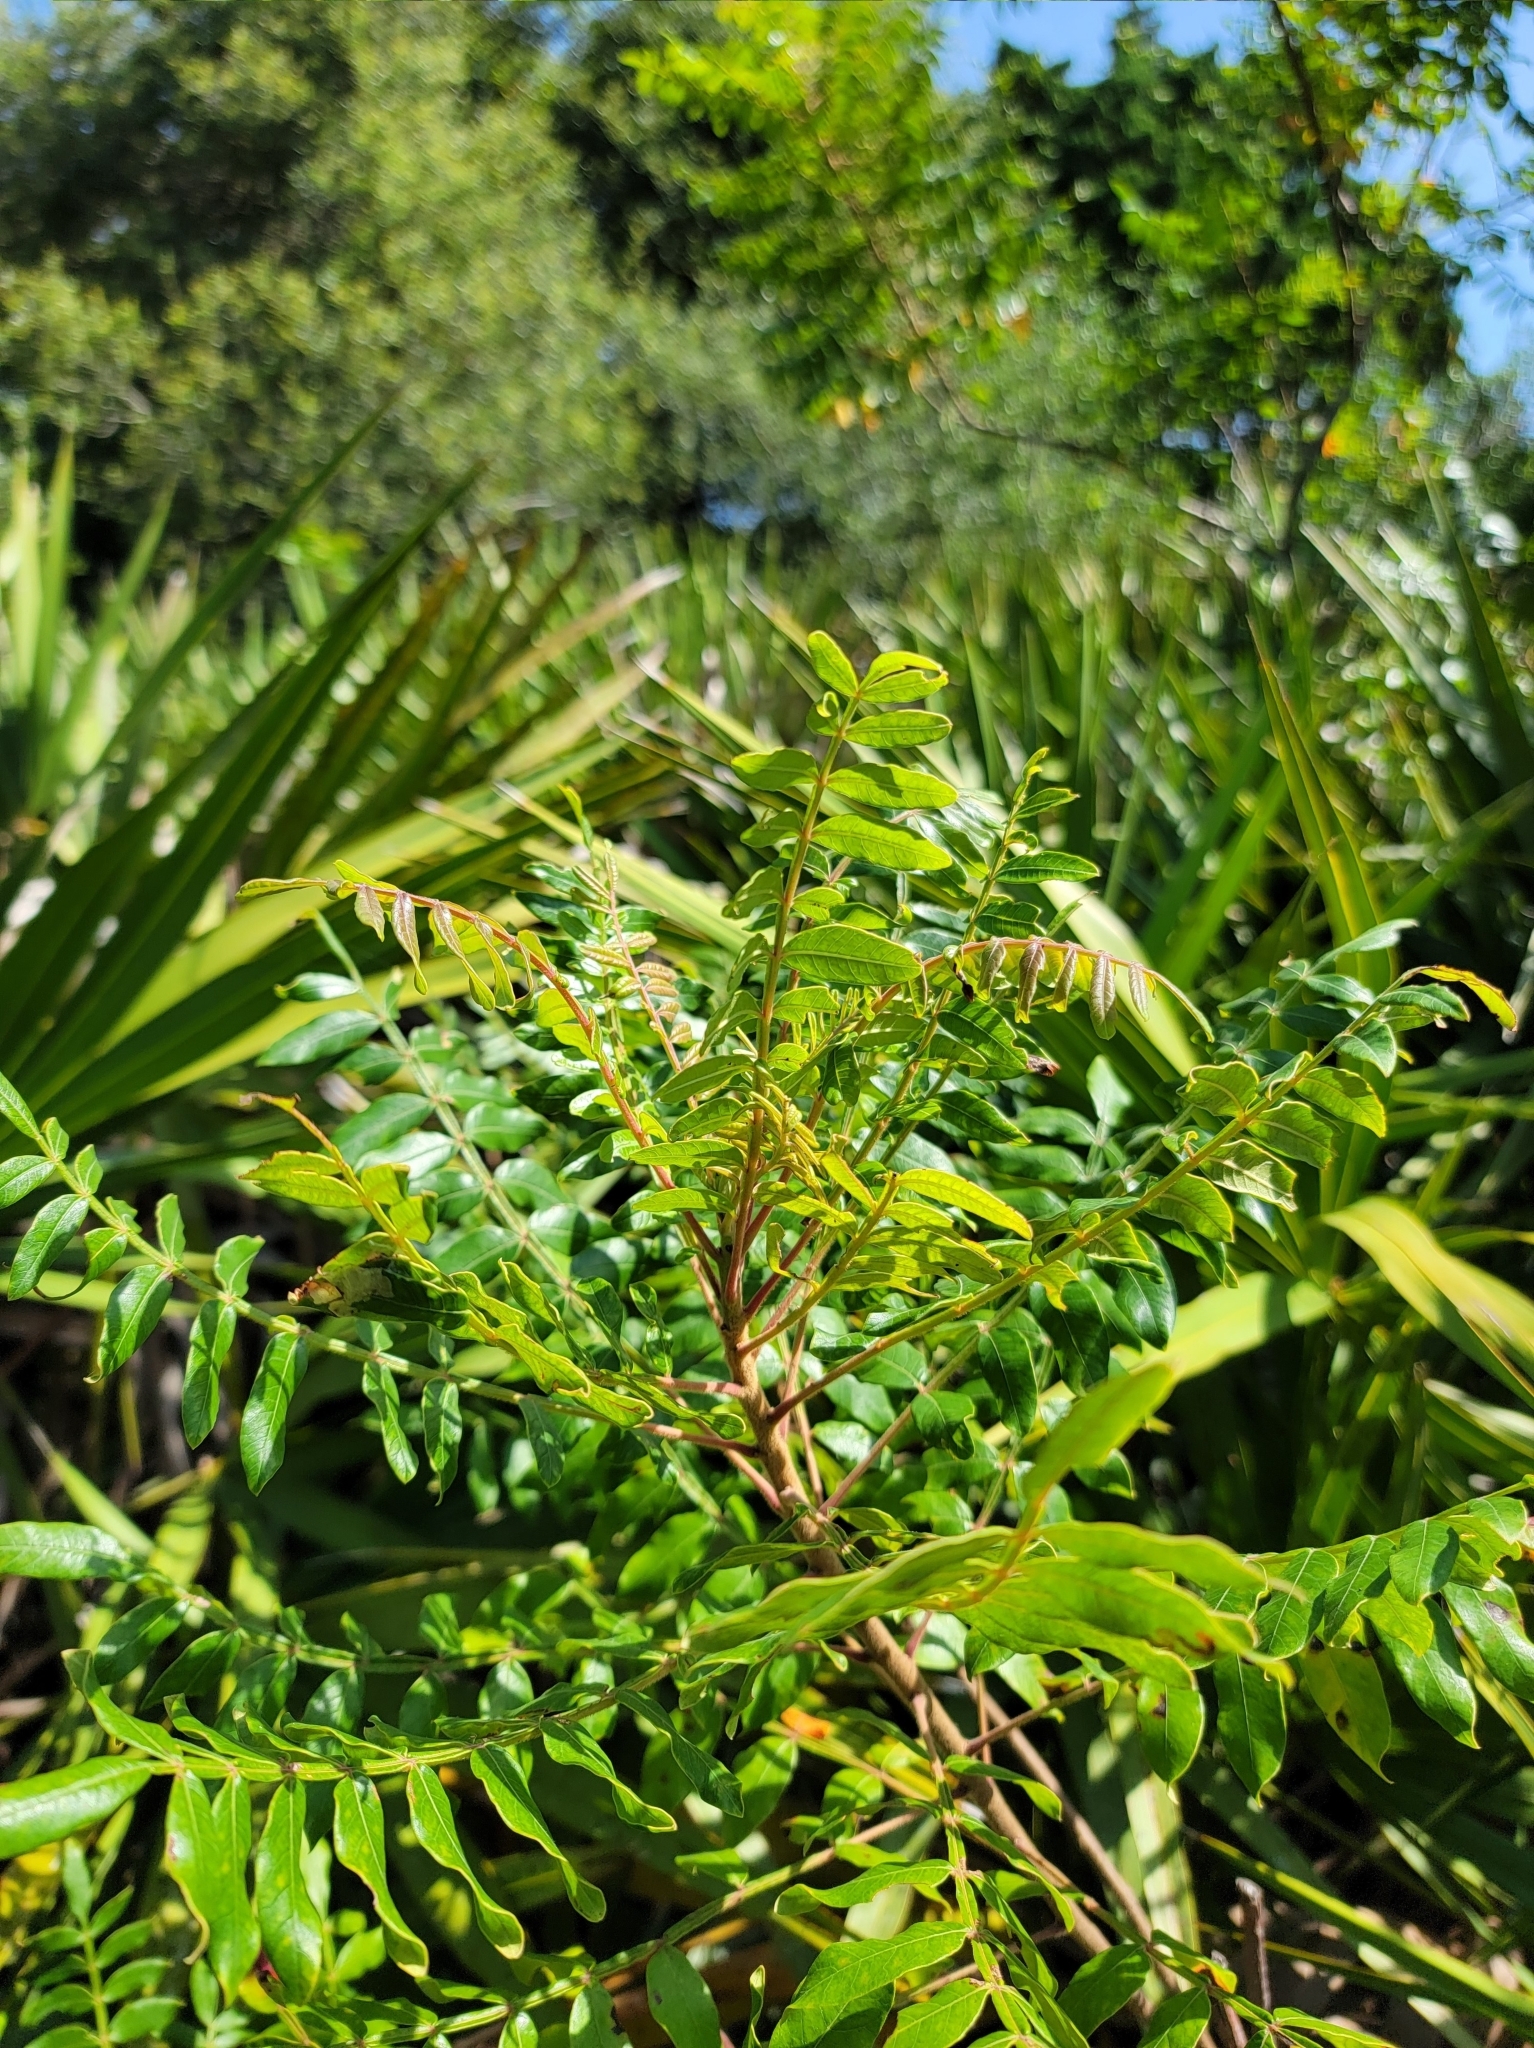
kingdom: Plantae
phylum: Tracheophyta
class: Magnoliopsida
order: Sapindales
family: Anacardiaceae
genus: Rhus
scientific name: Rhus copallina
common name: Shining sumac
